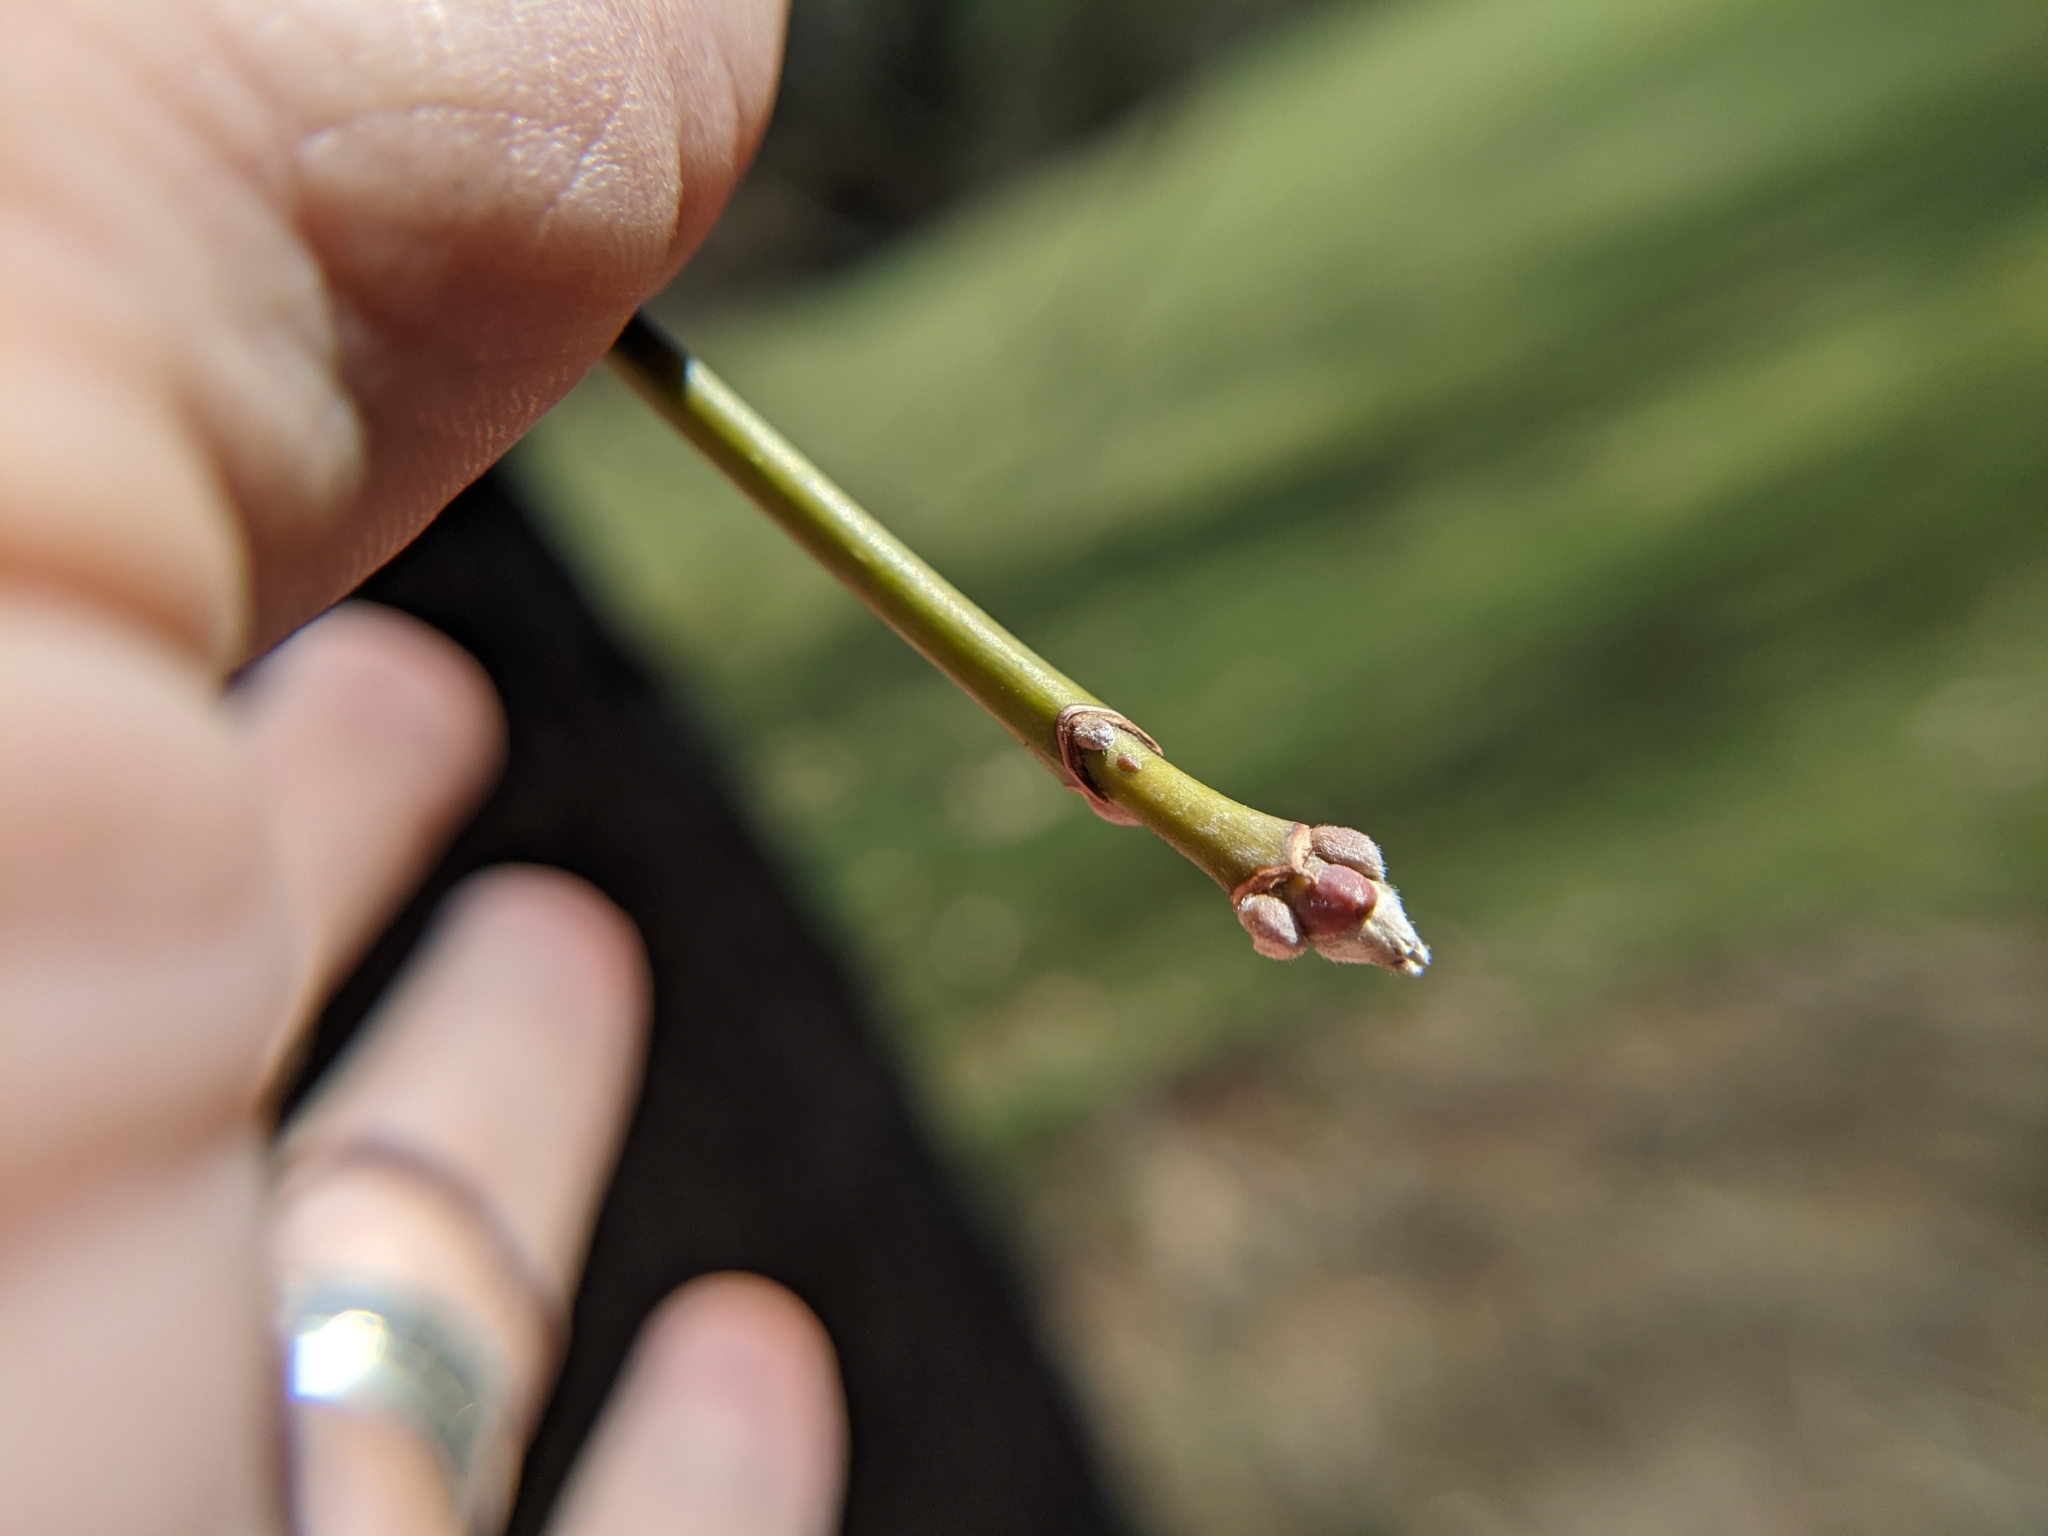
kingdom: Plantae
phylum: Tracheophyta
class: Magnoliopsida
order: Sapindales
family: Sapindaceae
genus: Acer
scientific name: Acer negundo
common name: Ashleaf maple
